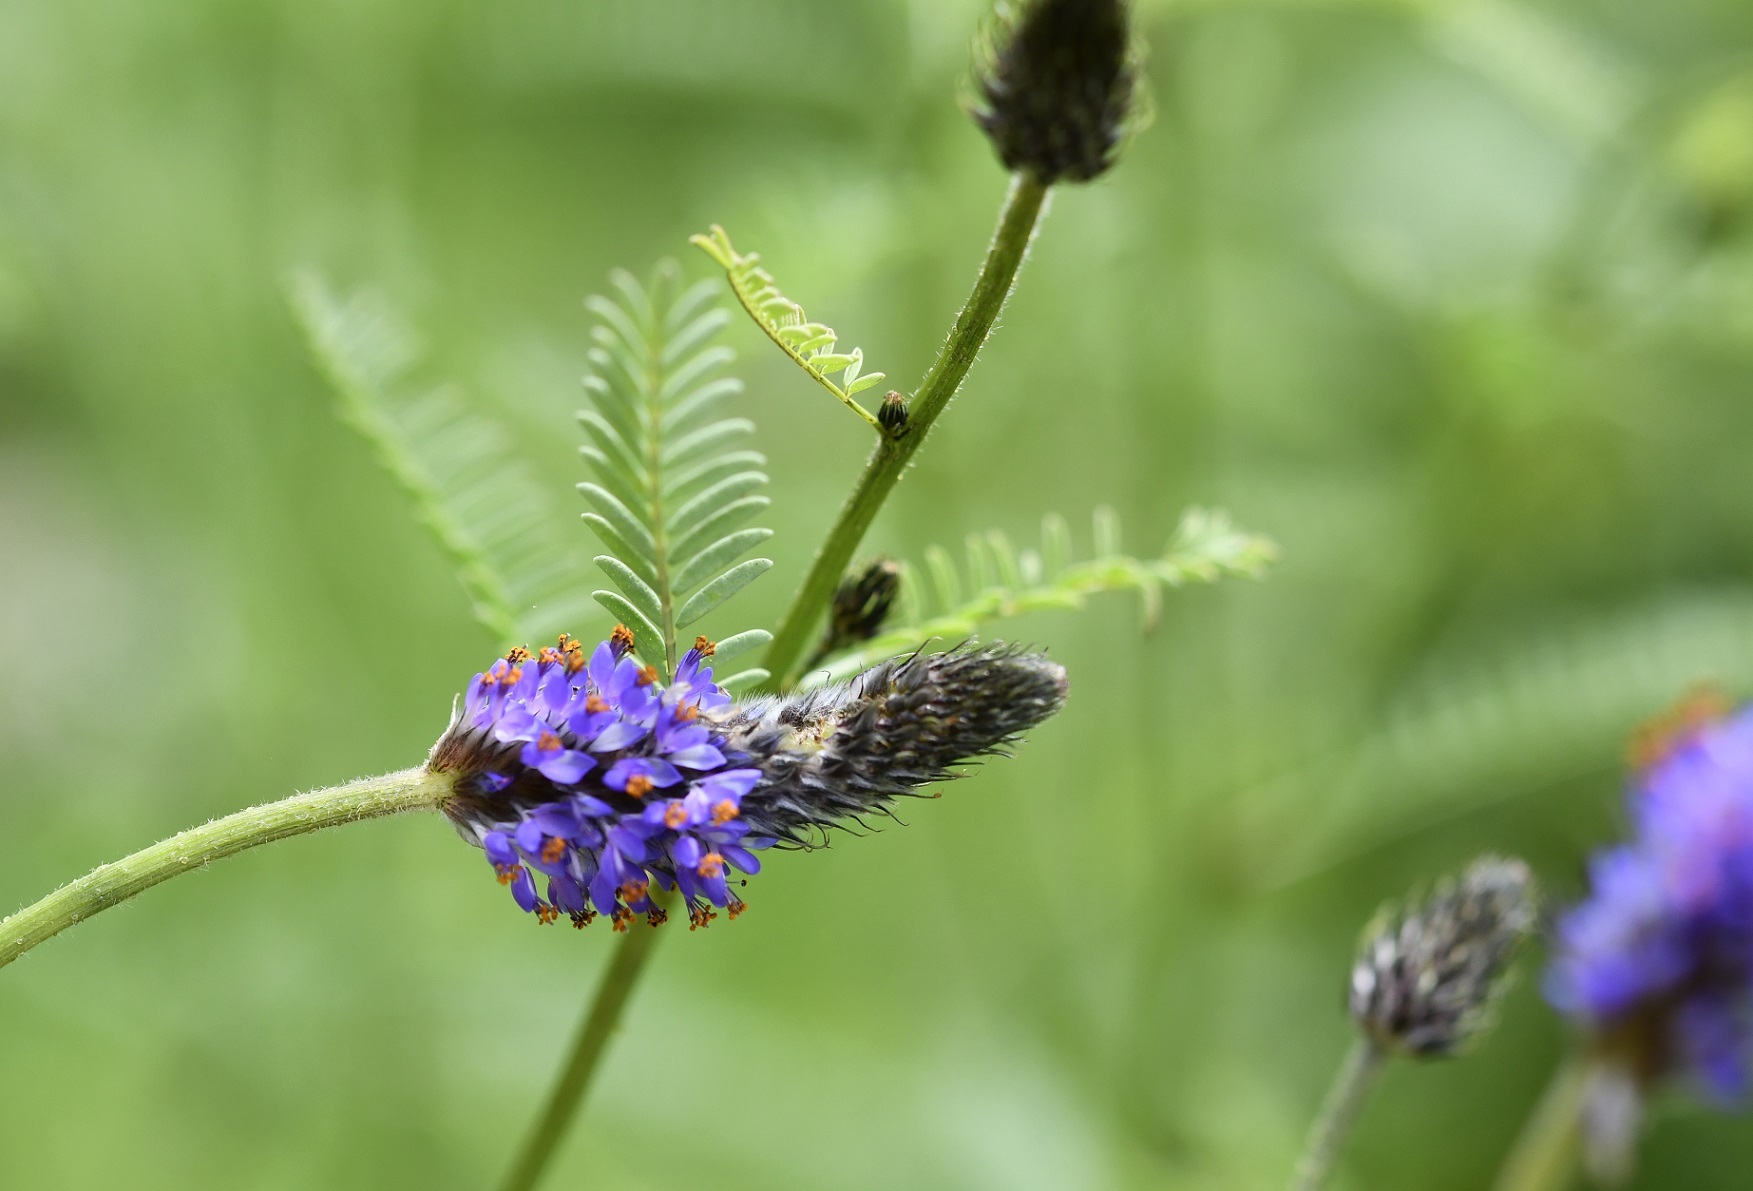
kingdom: Plantae
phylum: Tracheophyta
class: Magnoliopsida
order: Fabales
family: Fabaceae
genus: Dalea
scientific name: Dalea leporina
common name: Foxtail dalea
